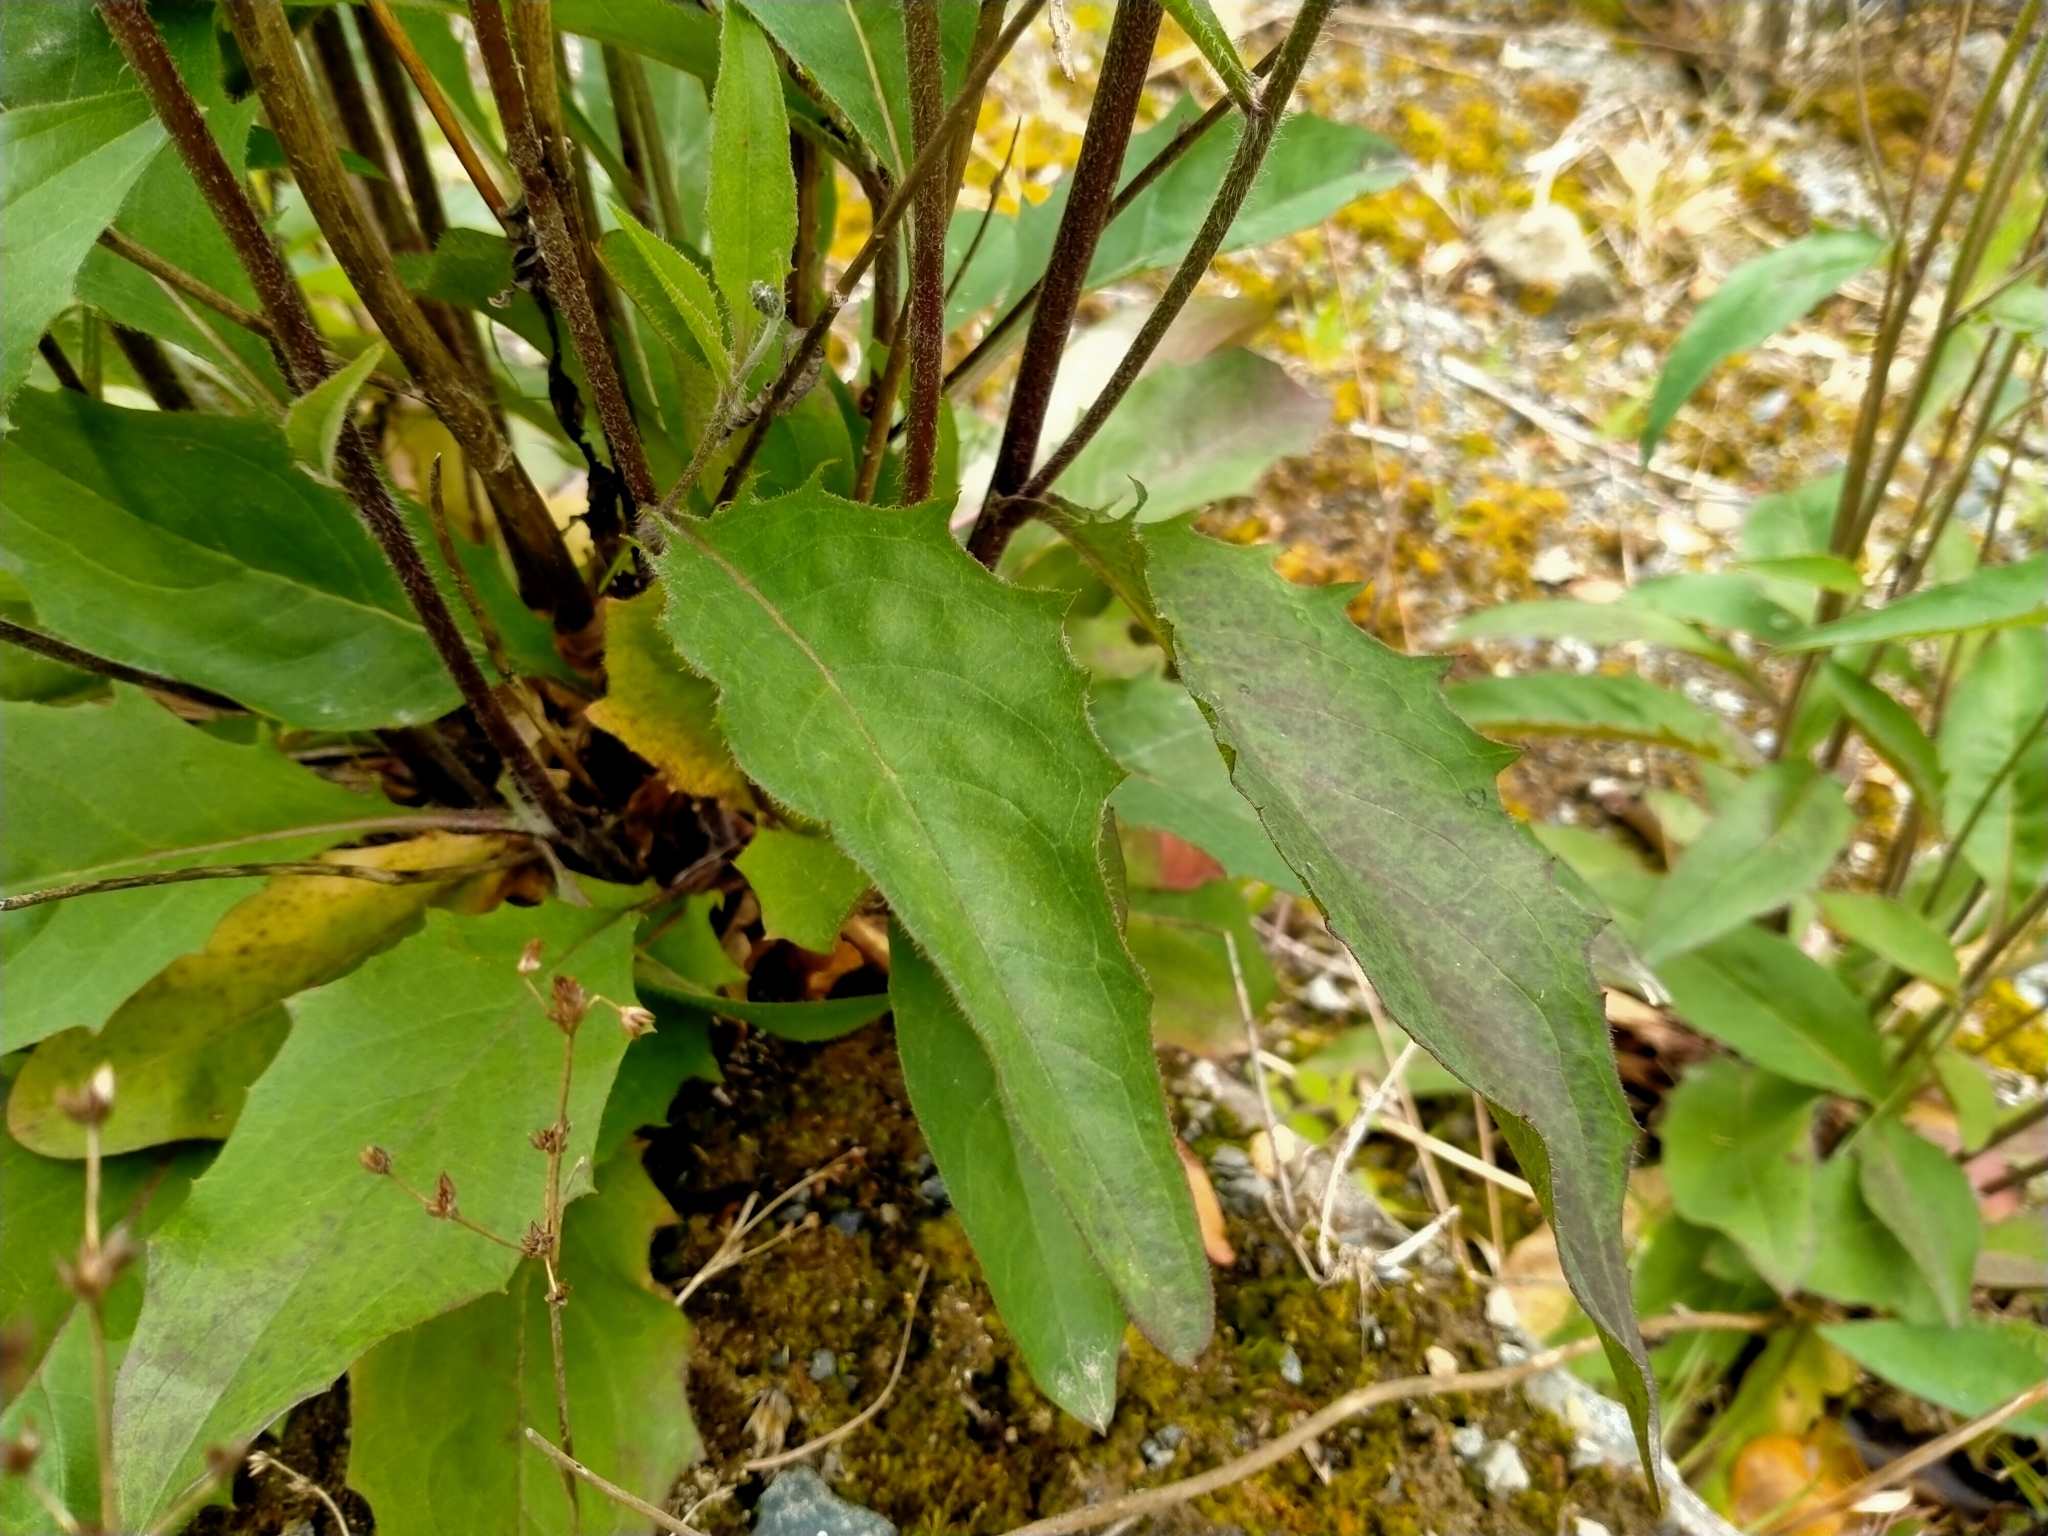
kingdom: Plantae
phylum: Tracheophyta
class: Magnoliopsida
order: Asterales
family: Asteraceae
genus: Hieracium
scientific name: Hieracium lepidulum
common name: Irregular-toothed hawkweed
